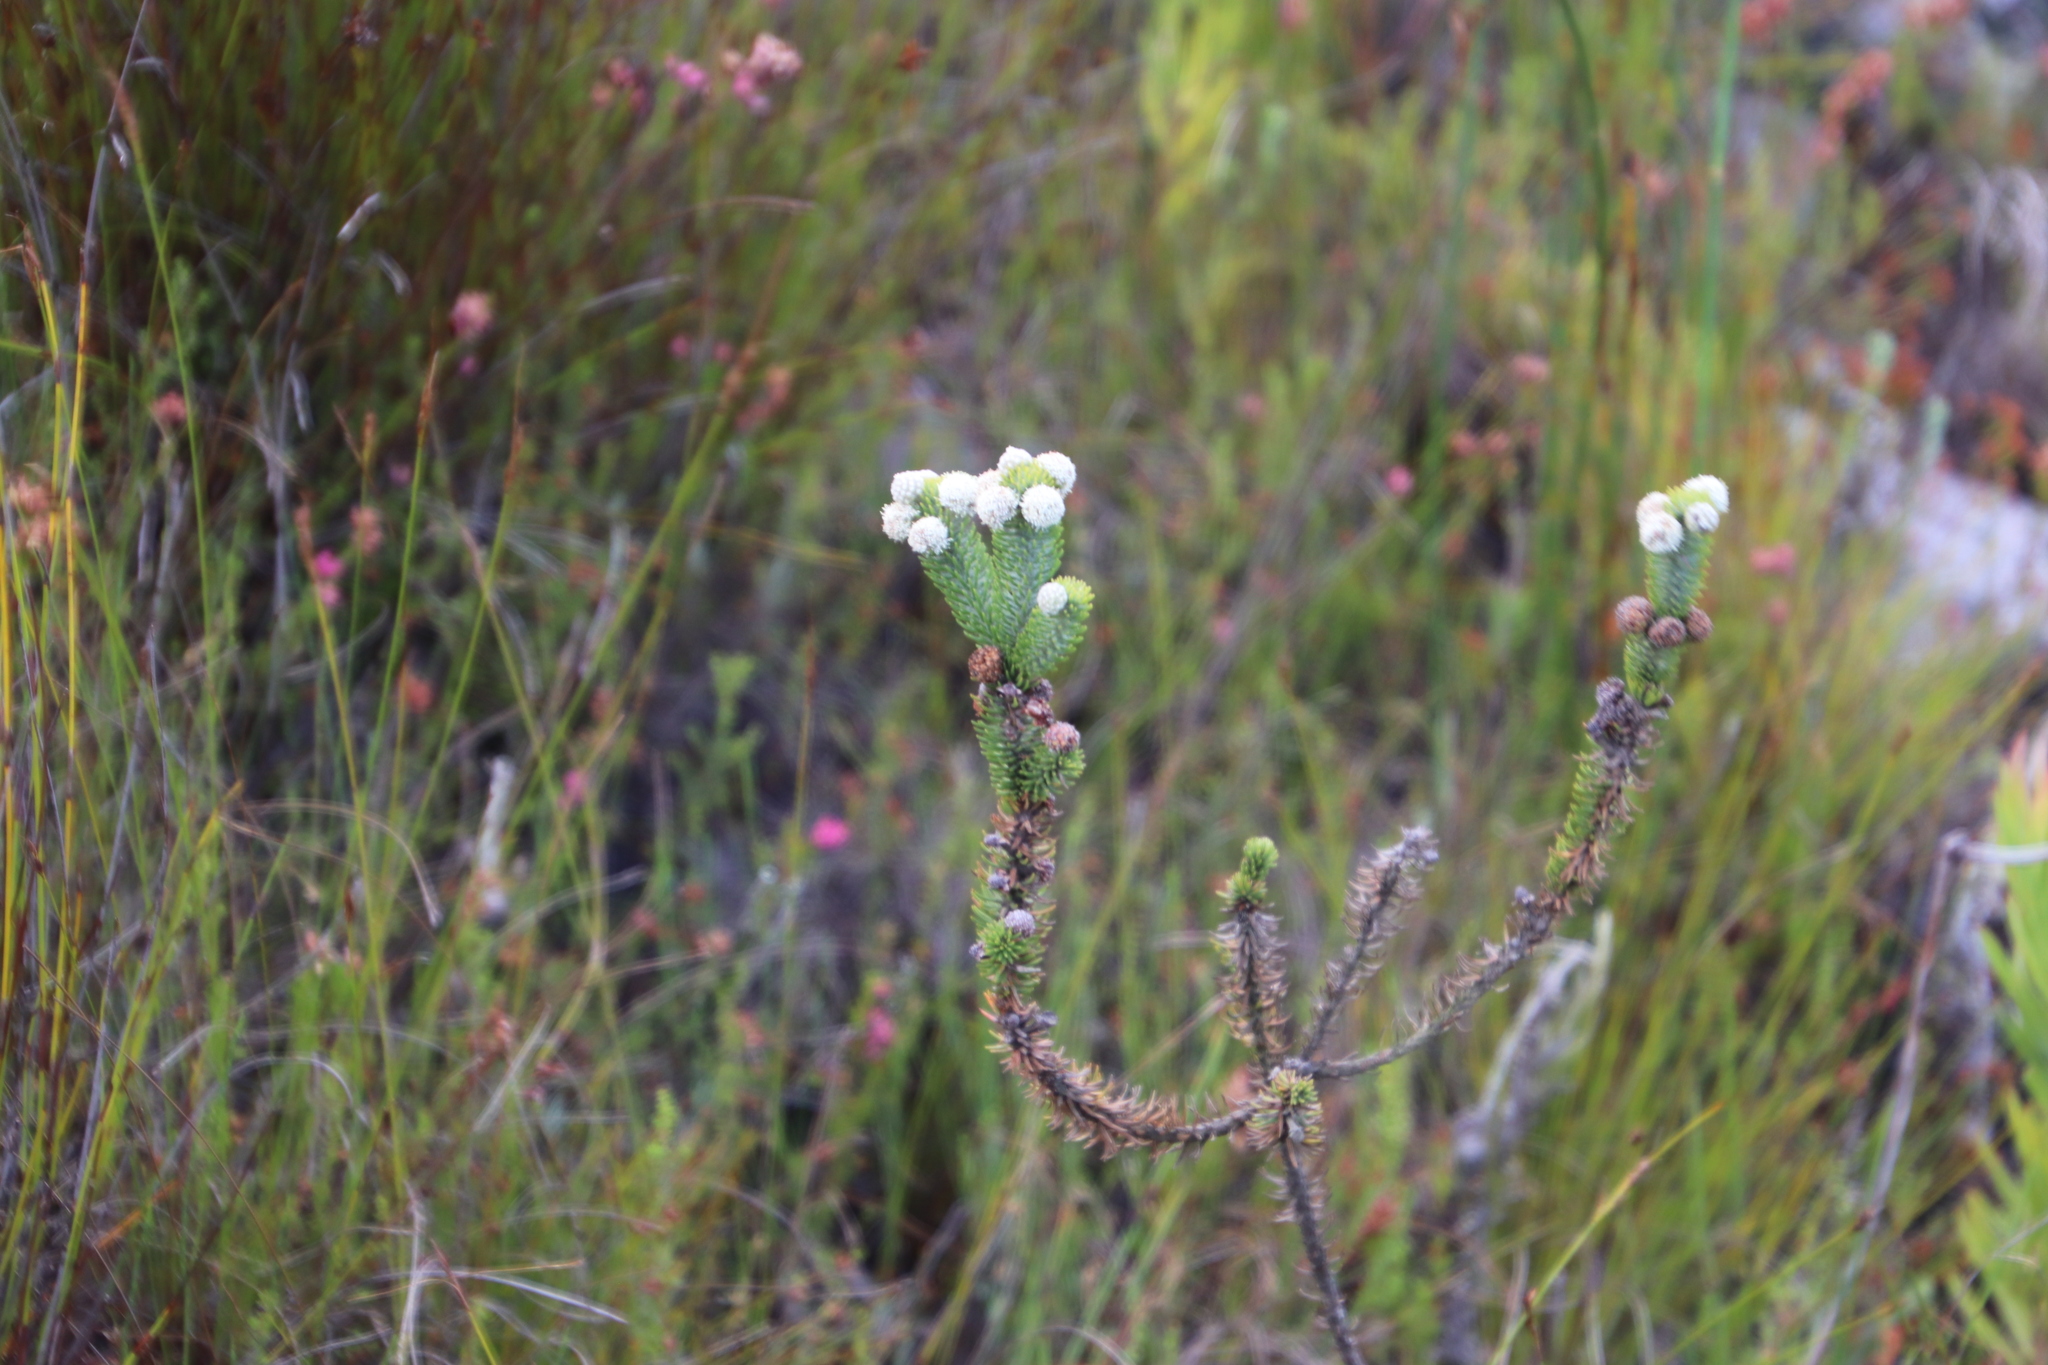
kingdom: Plantae
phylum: Tracheophyta
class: Magnoliopsida
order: Bruniales
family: Bruniaceae
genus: Berzelia
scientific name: Berzelia rubra
